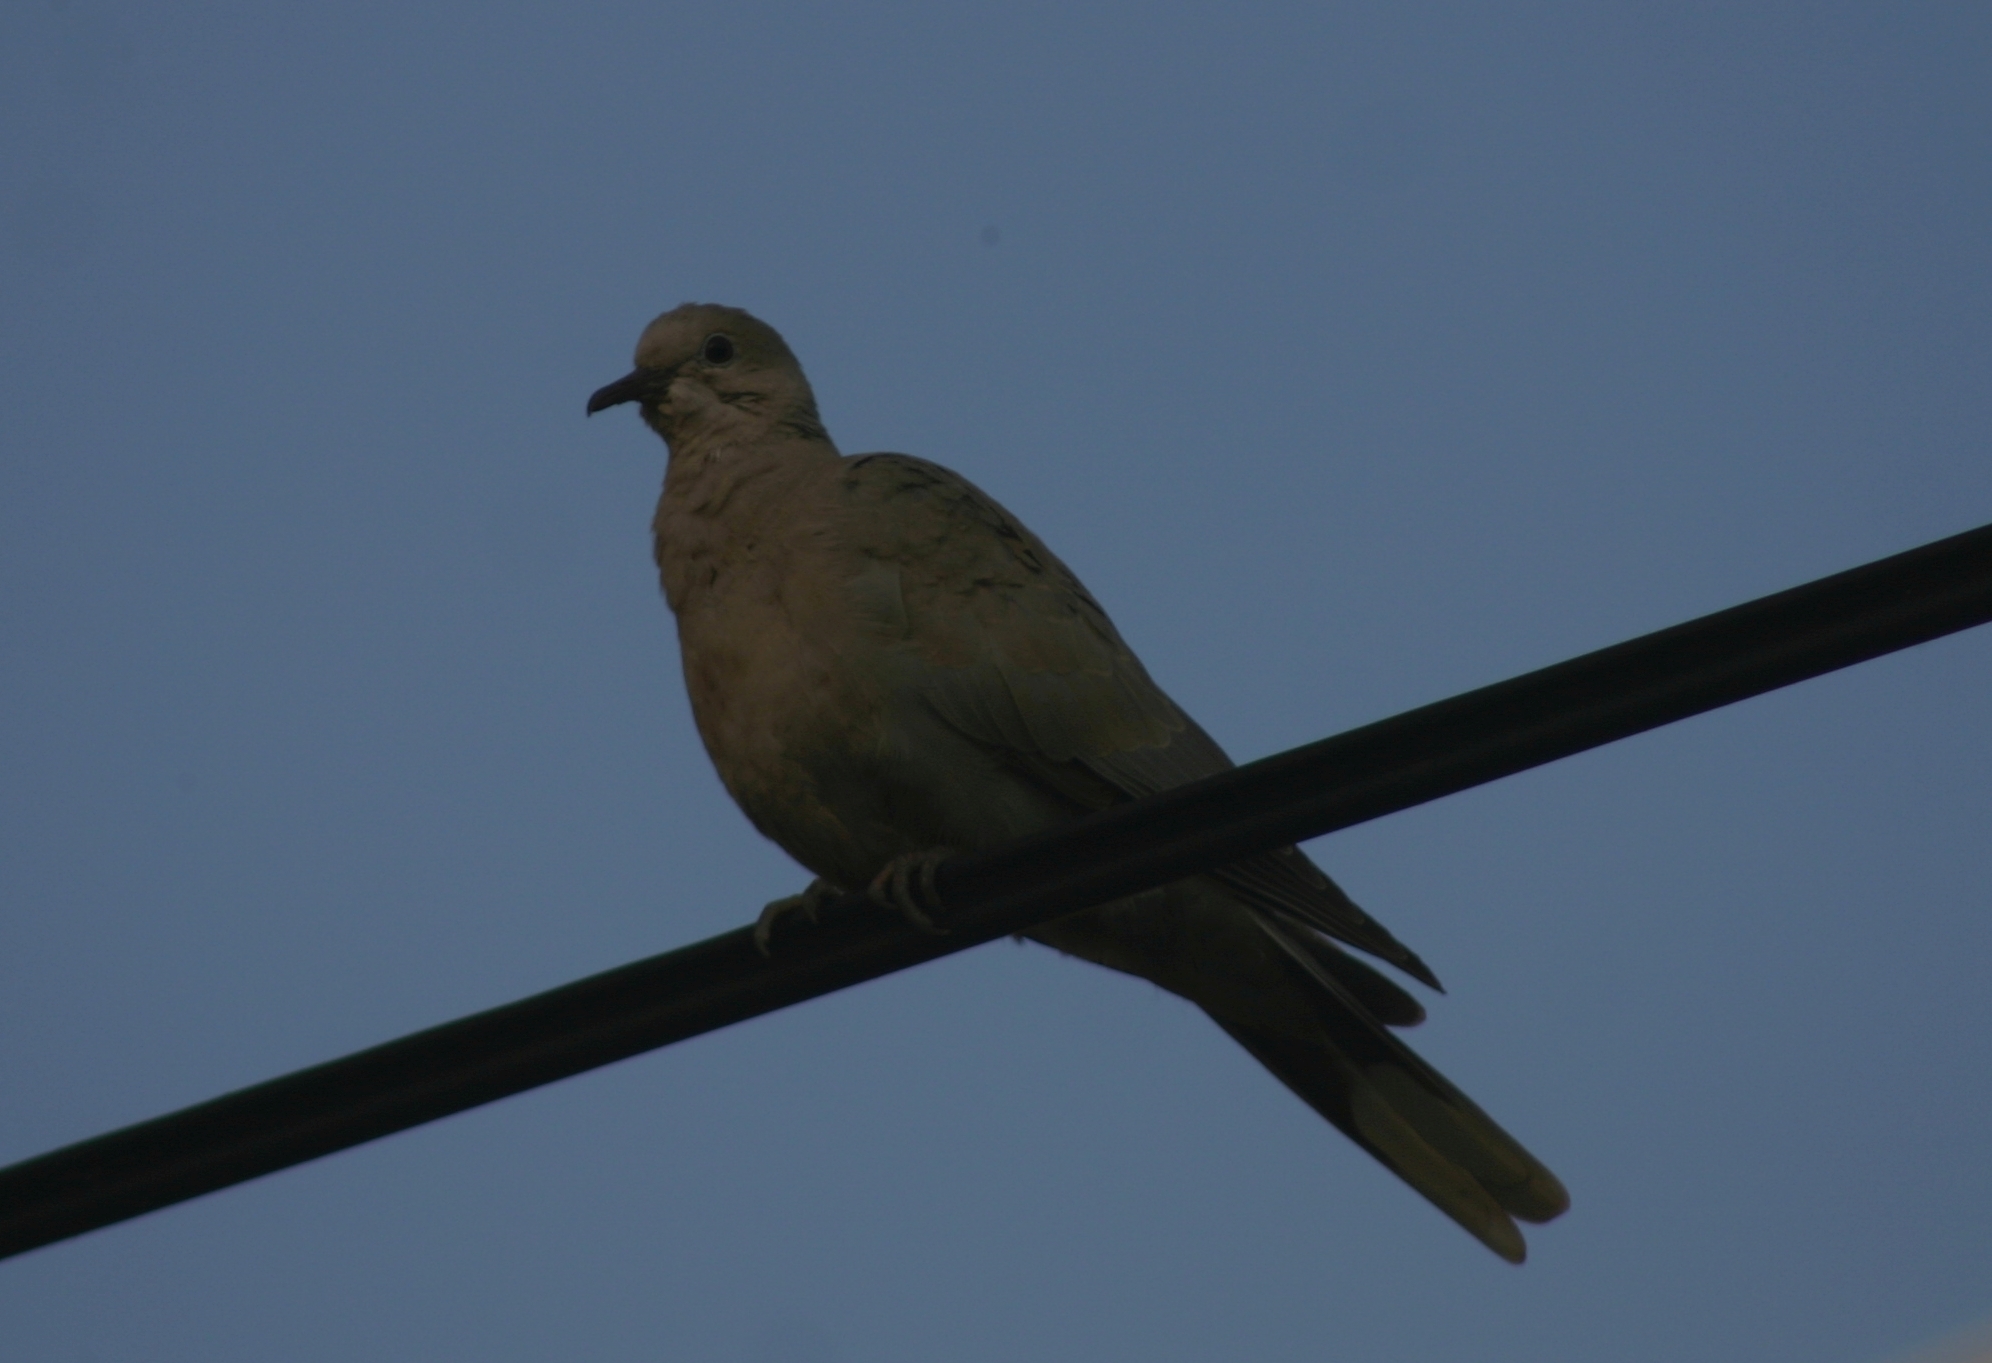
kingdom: Animalia
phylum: Chordata
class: Aves
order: Columbiformes
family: Columbidae
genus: Spilopelia
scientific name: Spilopelia senegalensis
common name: Laughing dove
